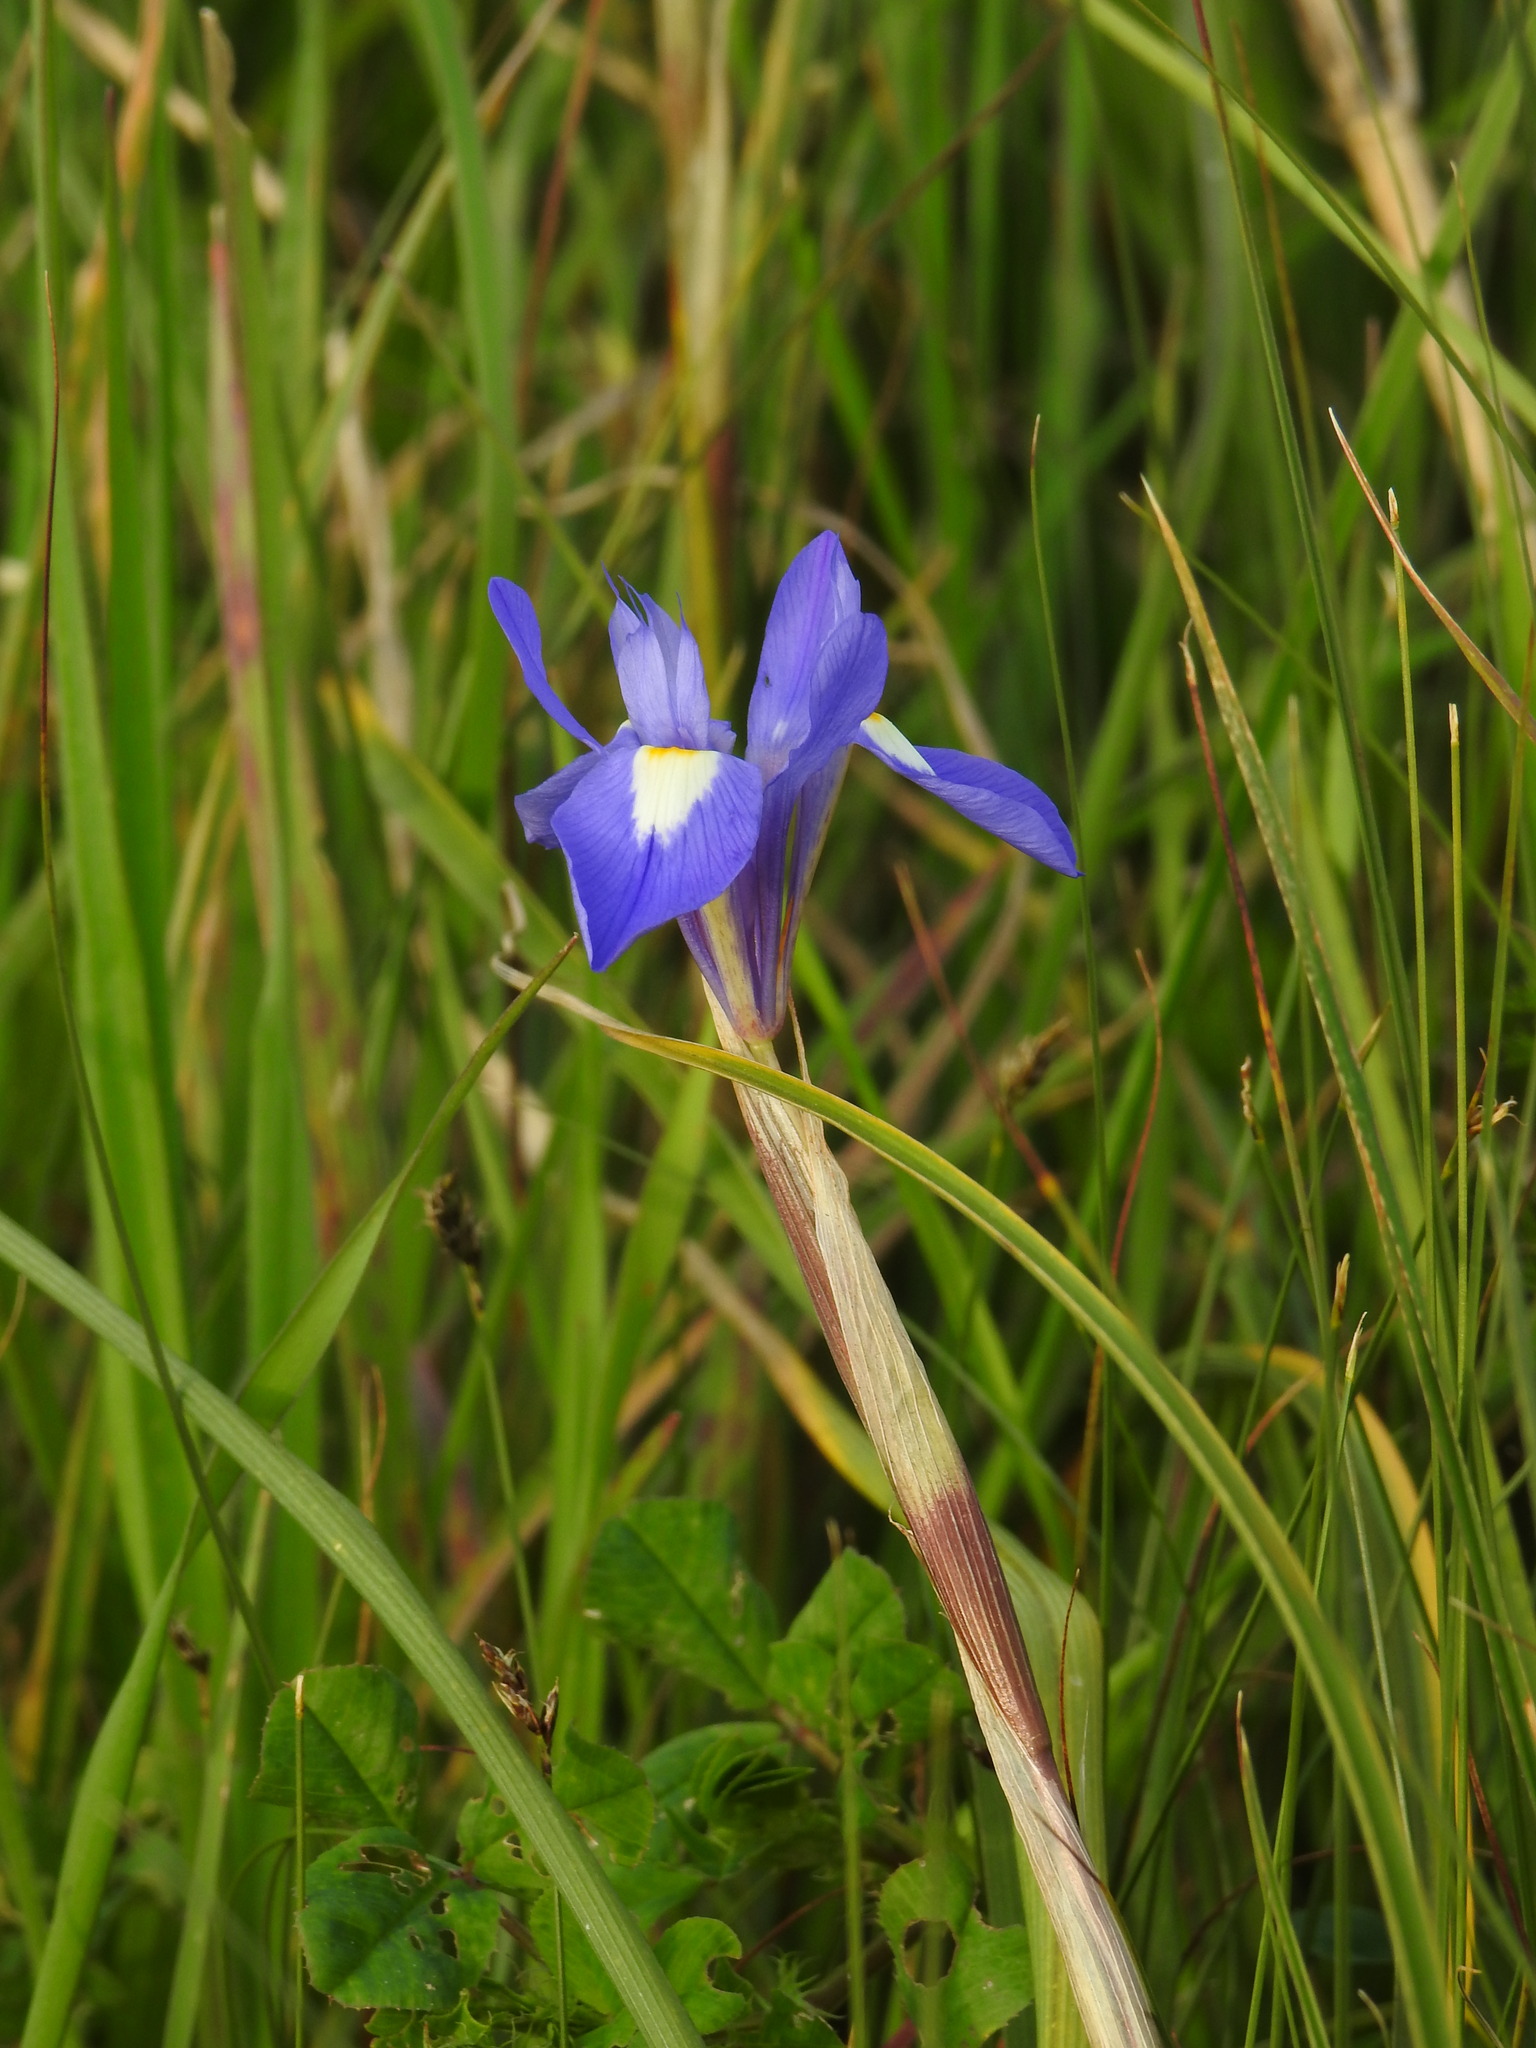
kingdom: Plantae
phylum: Tracheophyta
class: Liliopsida
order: Asparagales
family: Iridaceae
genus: Moraea
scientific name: Moraea sisyrinchium
